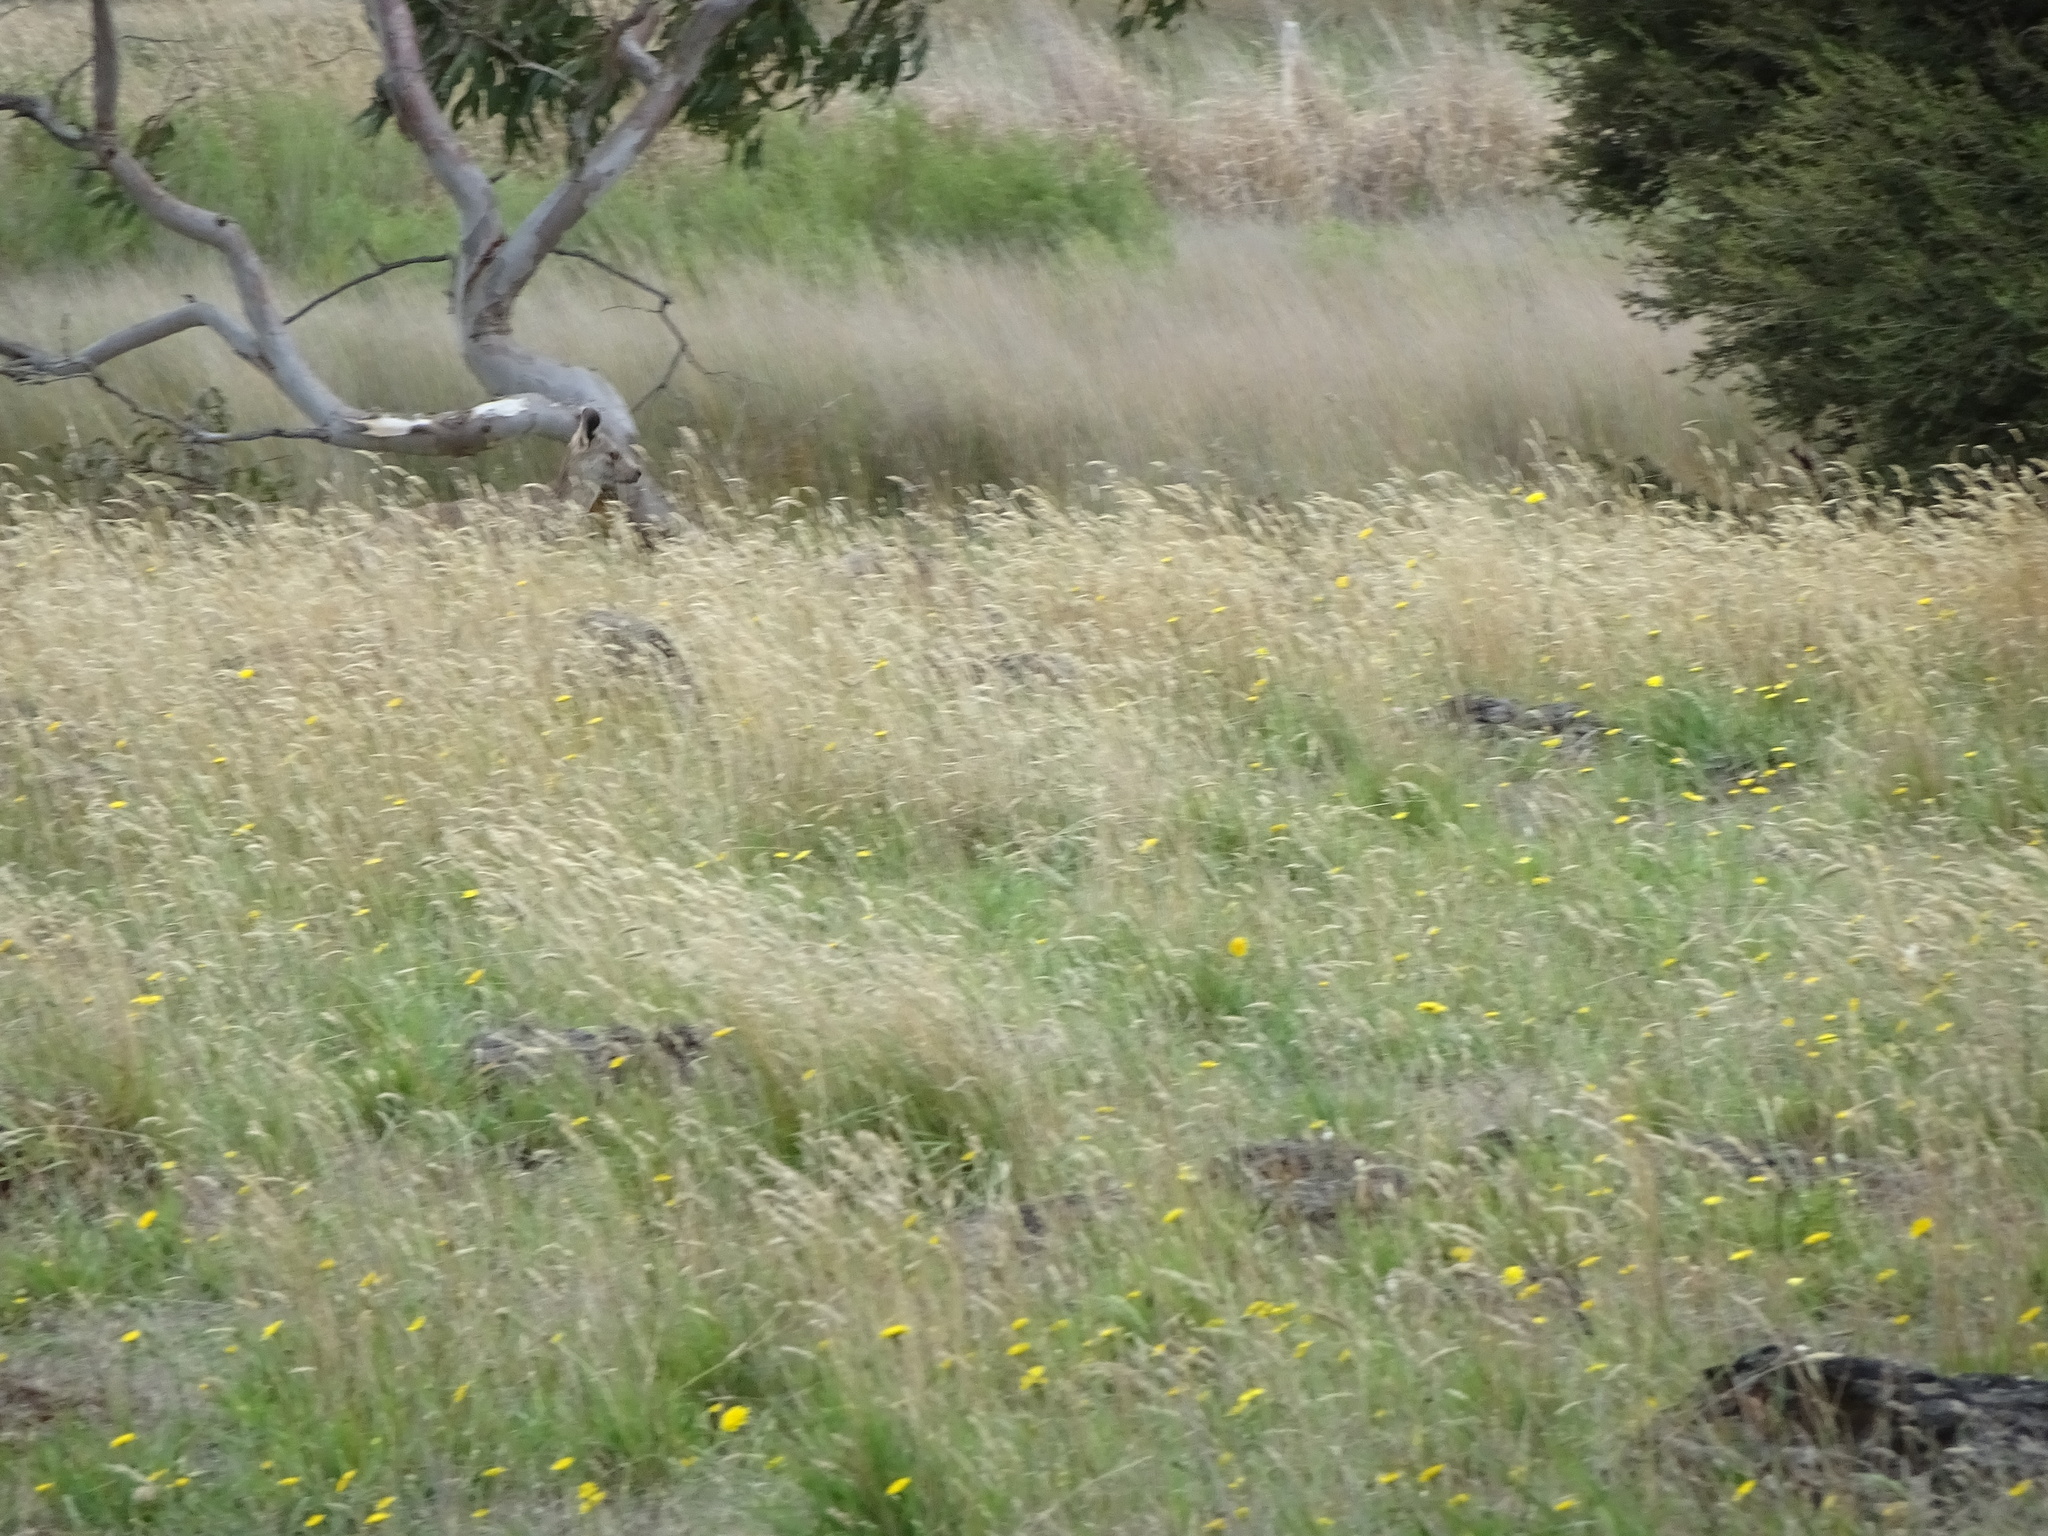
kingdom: Animalia
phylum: Chordata
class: Mammalia
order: Diprotodontia
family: Macropodidae
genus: Macropus
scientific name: Macropus giganteus
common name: Eastern grey kangaroo
